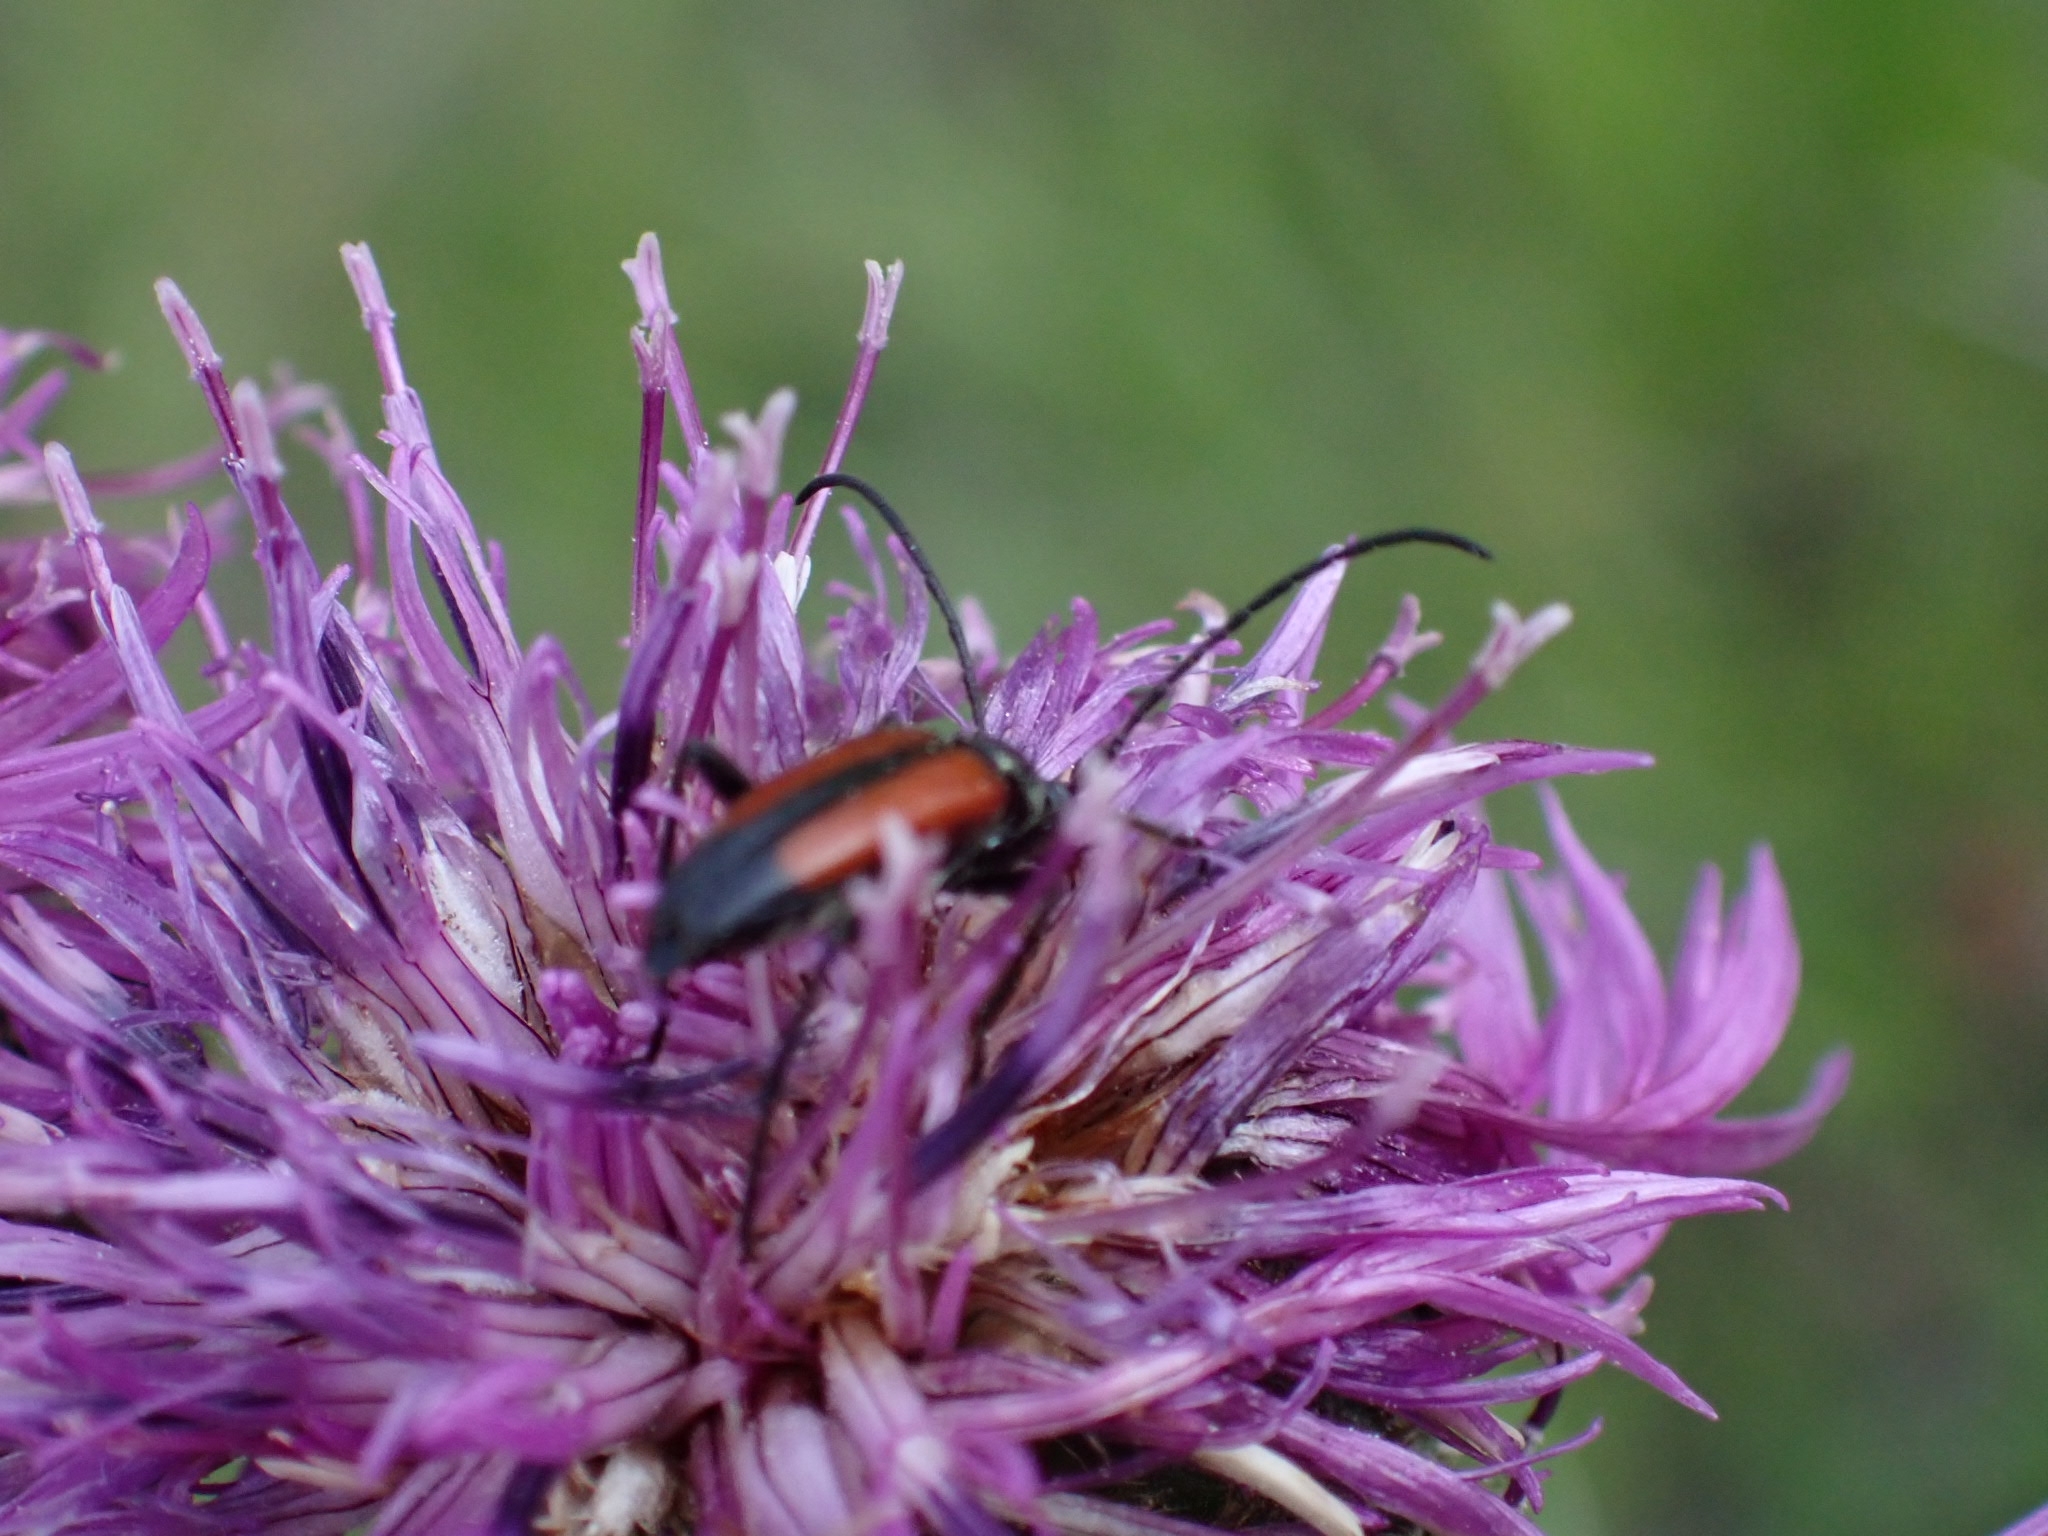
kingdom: Animalia
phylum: Arthropoda
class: Insecta
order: Coleoptera
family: Cerambycidae
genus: Stenurella
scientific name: Stenurella melanura
